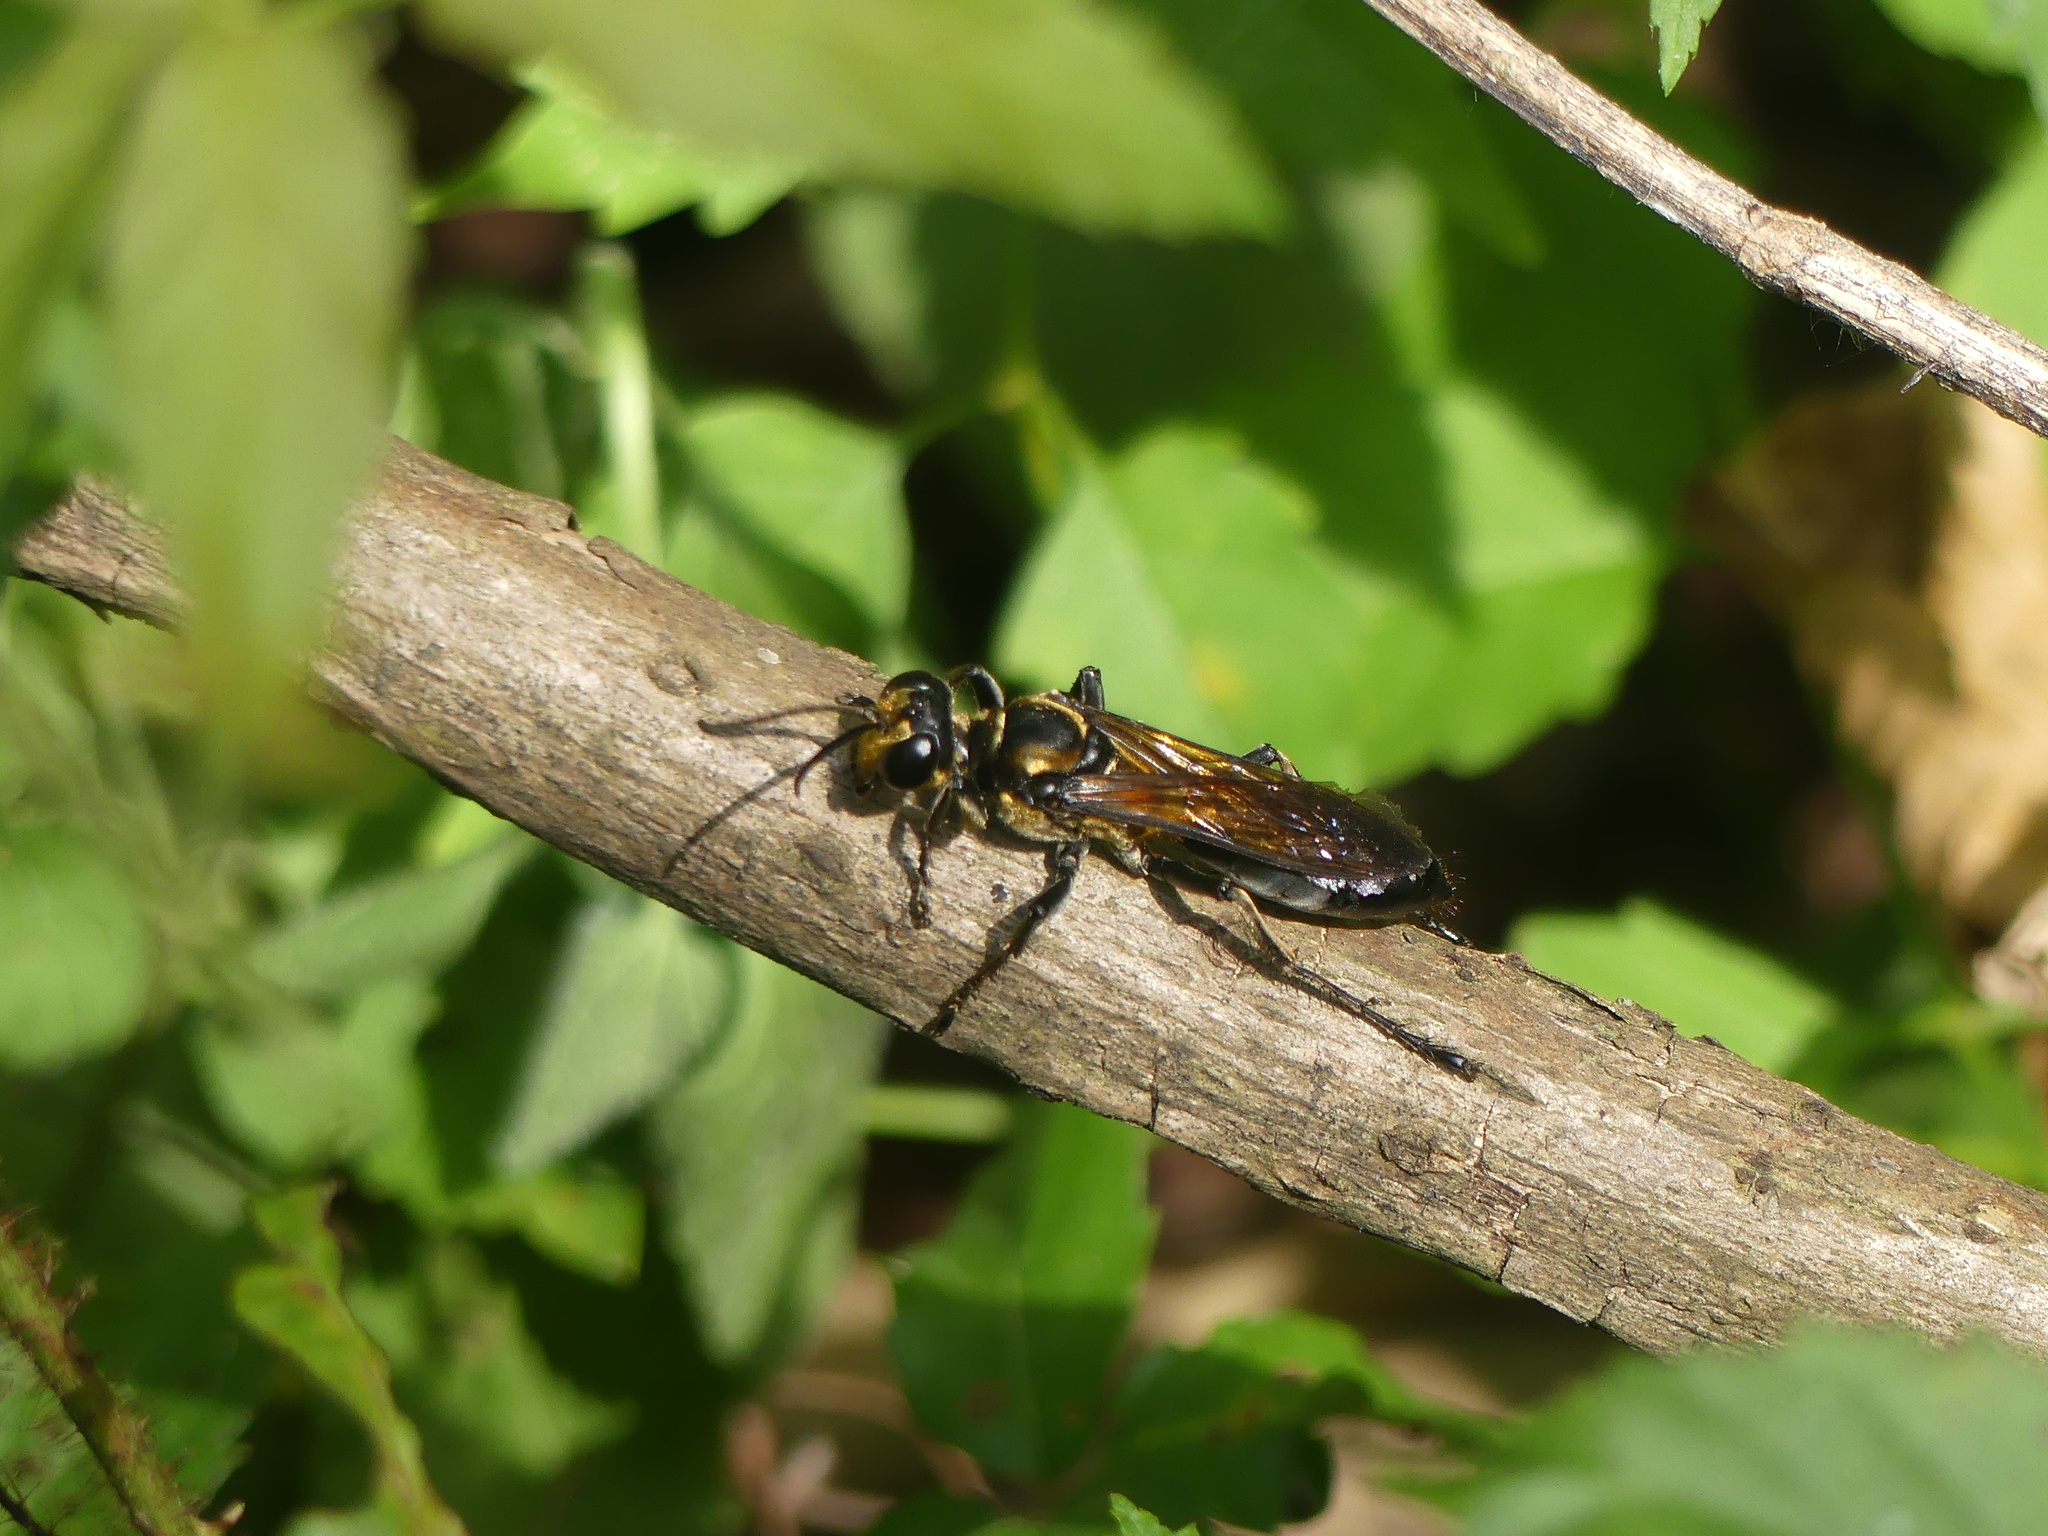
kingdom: Animalia
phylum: Arthropoda
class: Insecta
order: Hymenoptera
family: Sphecidae
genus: Sphex
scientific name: Sphex habenus
